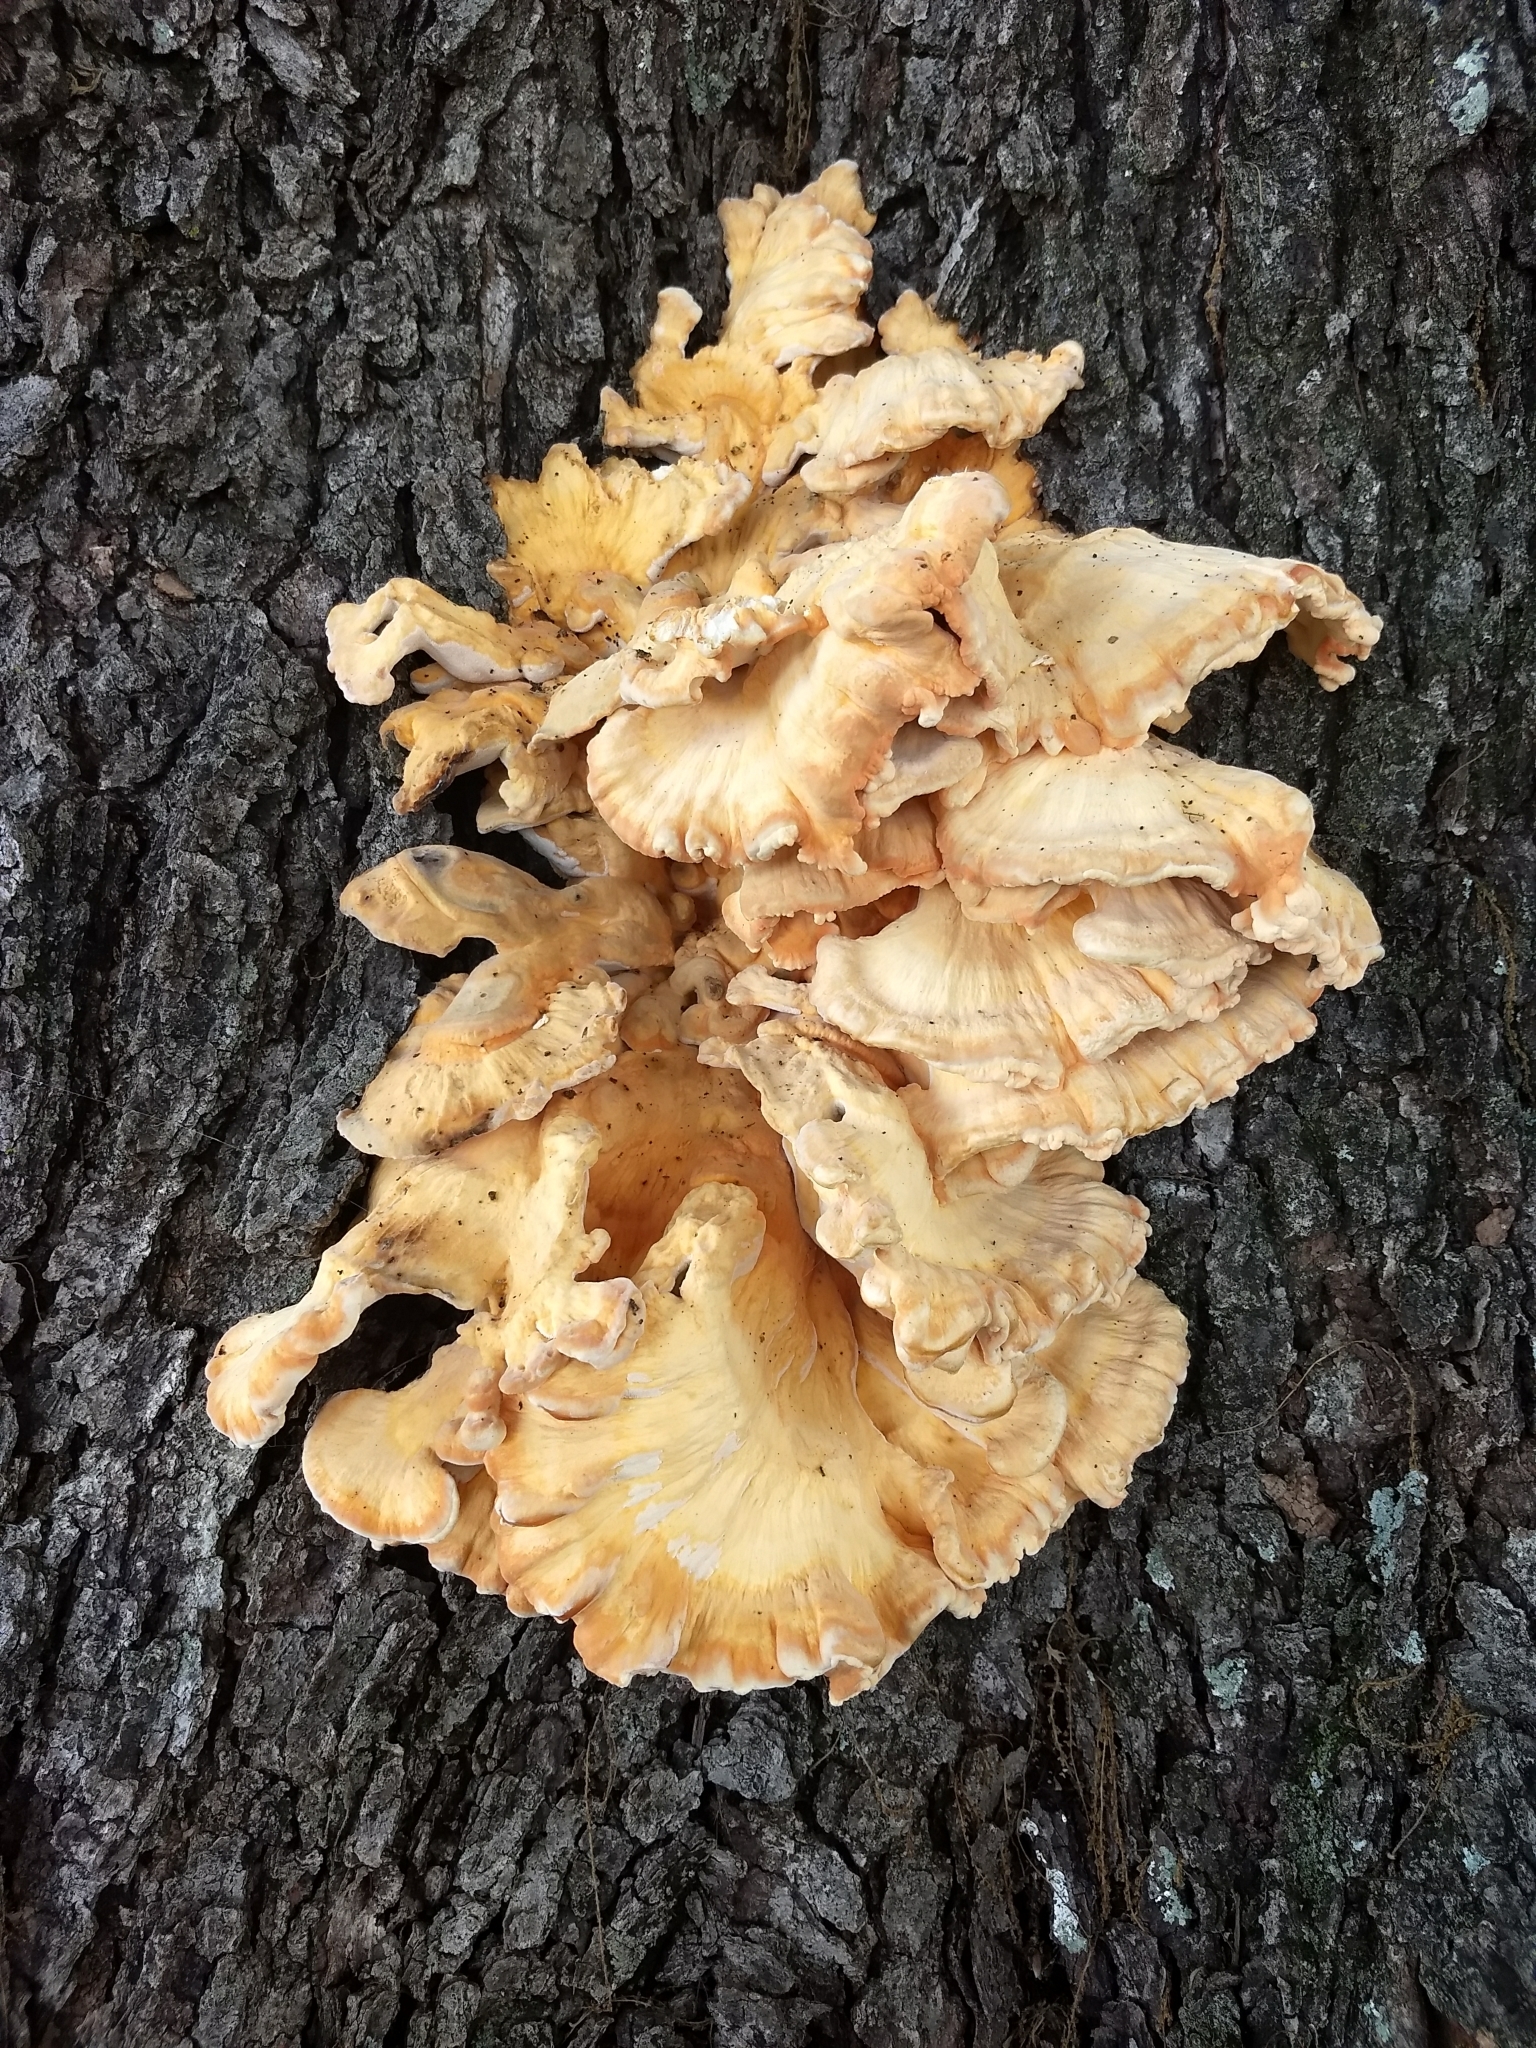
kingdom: Fungi
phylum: Basidiomycota
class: Agaricomycetes
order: Polyporales
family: Laetiporaceae
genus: Laetiporus
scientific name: Laetiporus sulphureus
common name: Chicken of the woods
